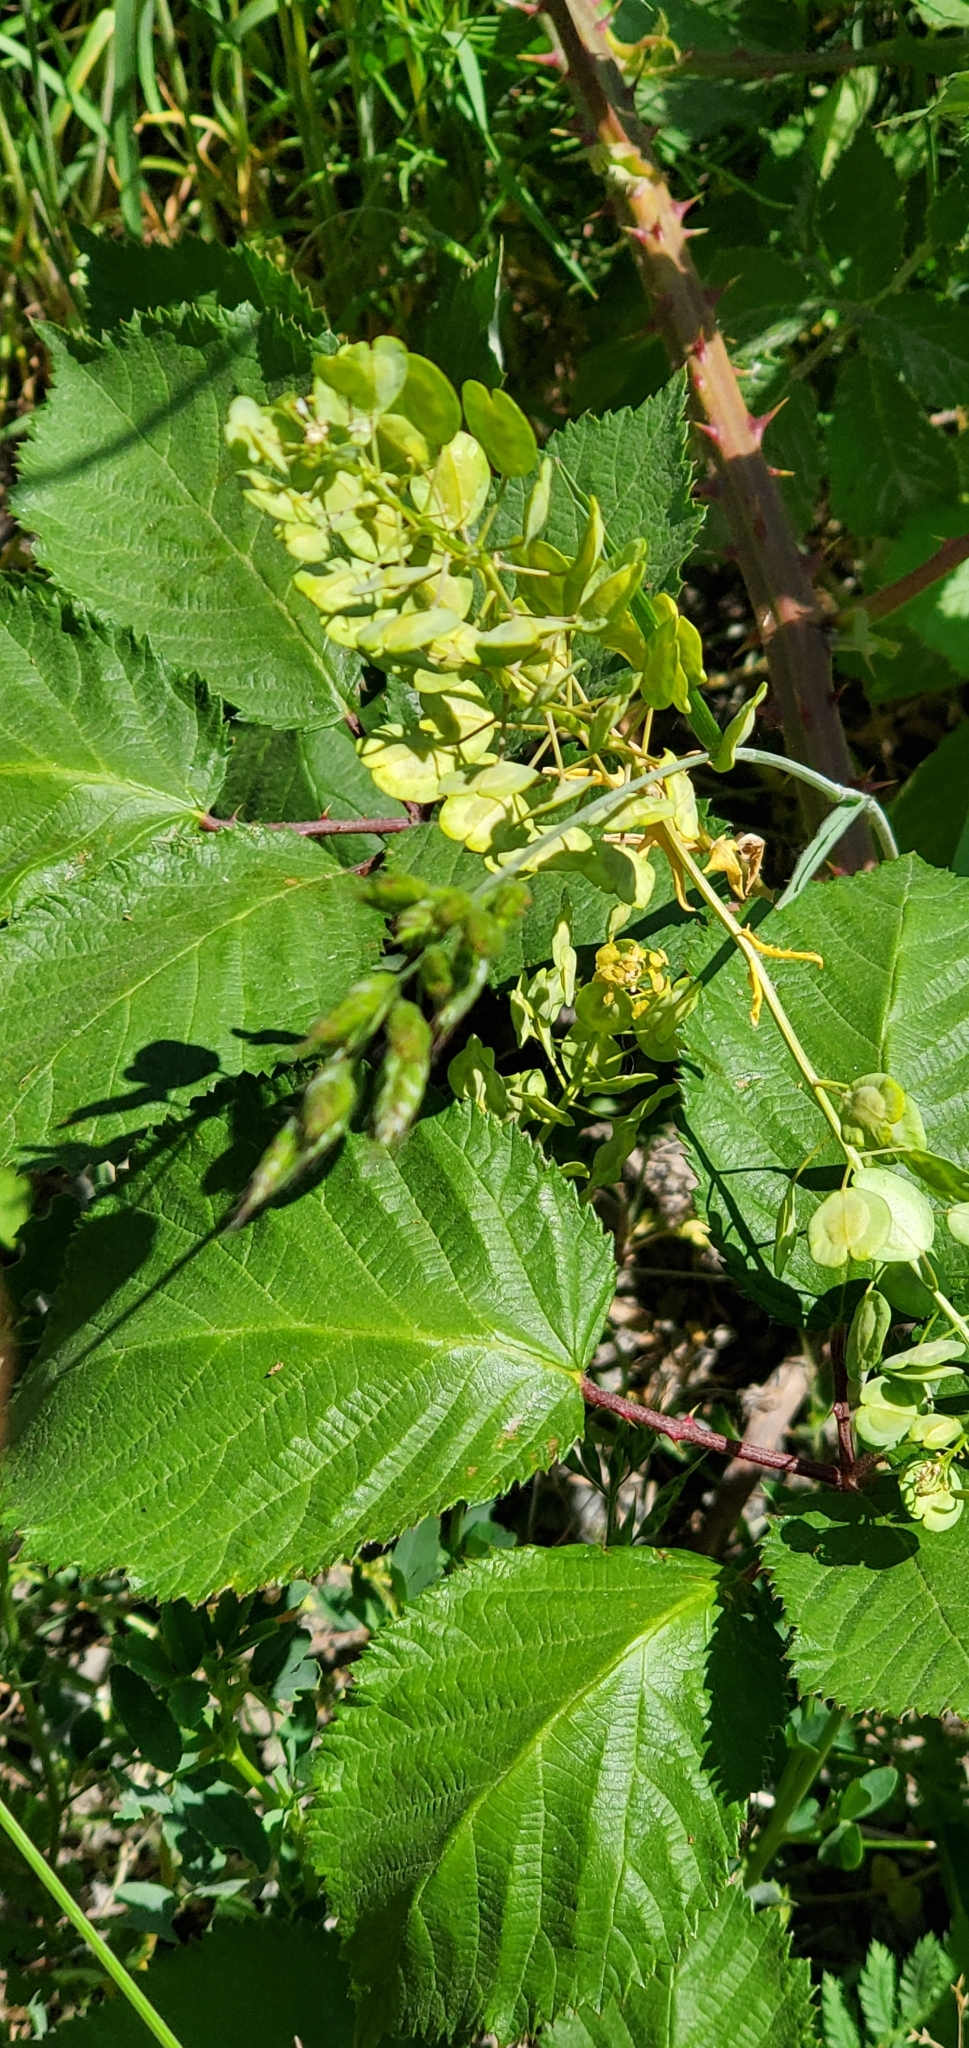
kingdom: Plantae
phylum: Tracheophyta
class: Magnoliopsida
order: Brassicales
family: Brassicaceae
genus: Thlaspi
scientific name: Thlaspi arvense
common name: Field pennycress
